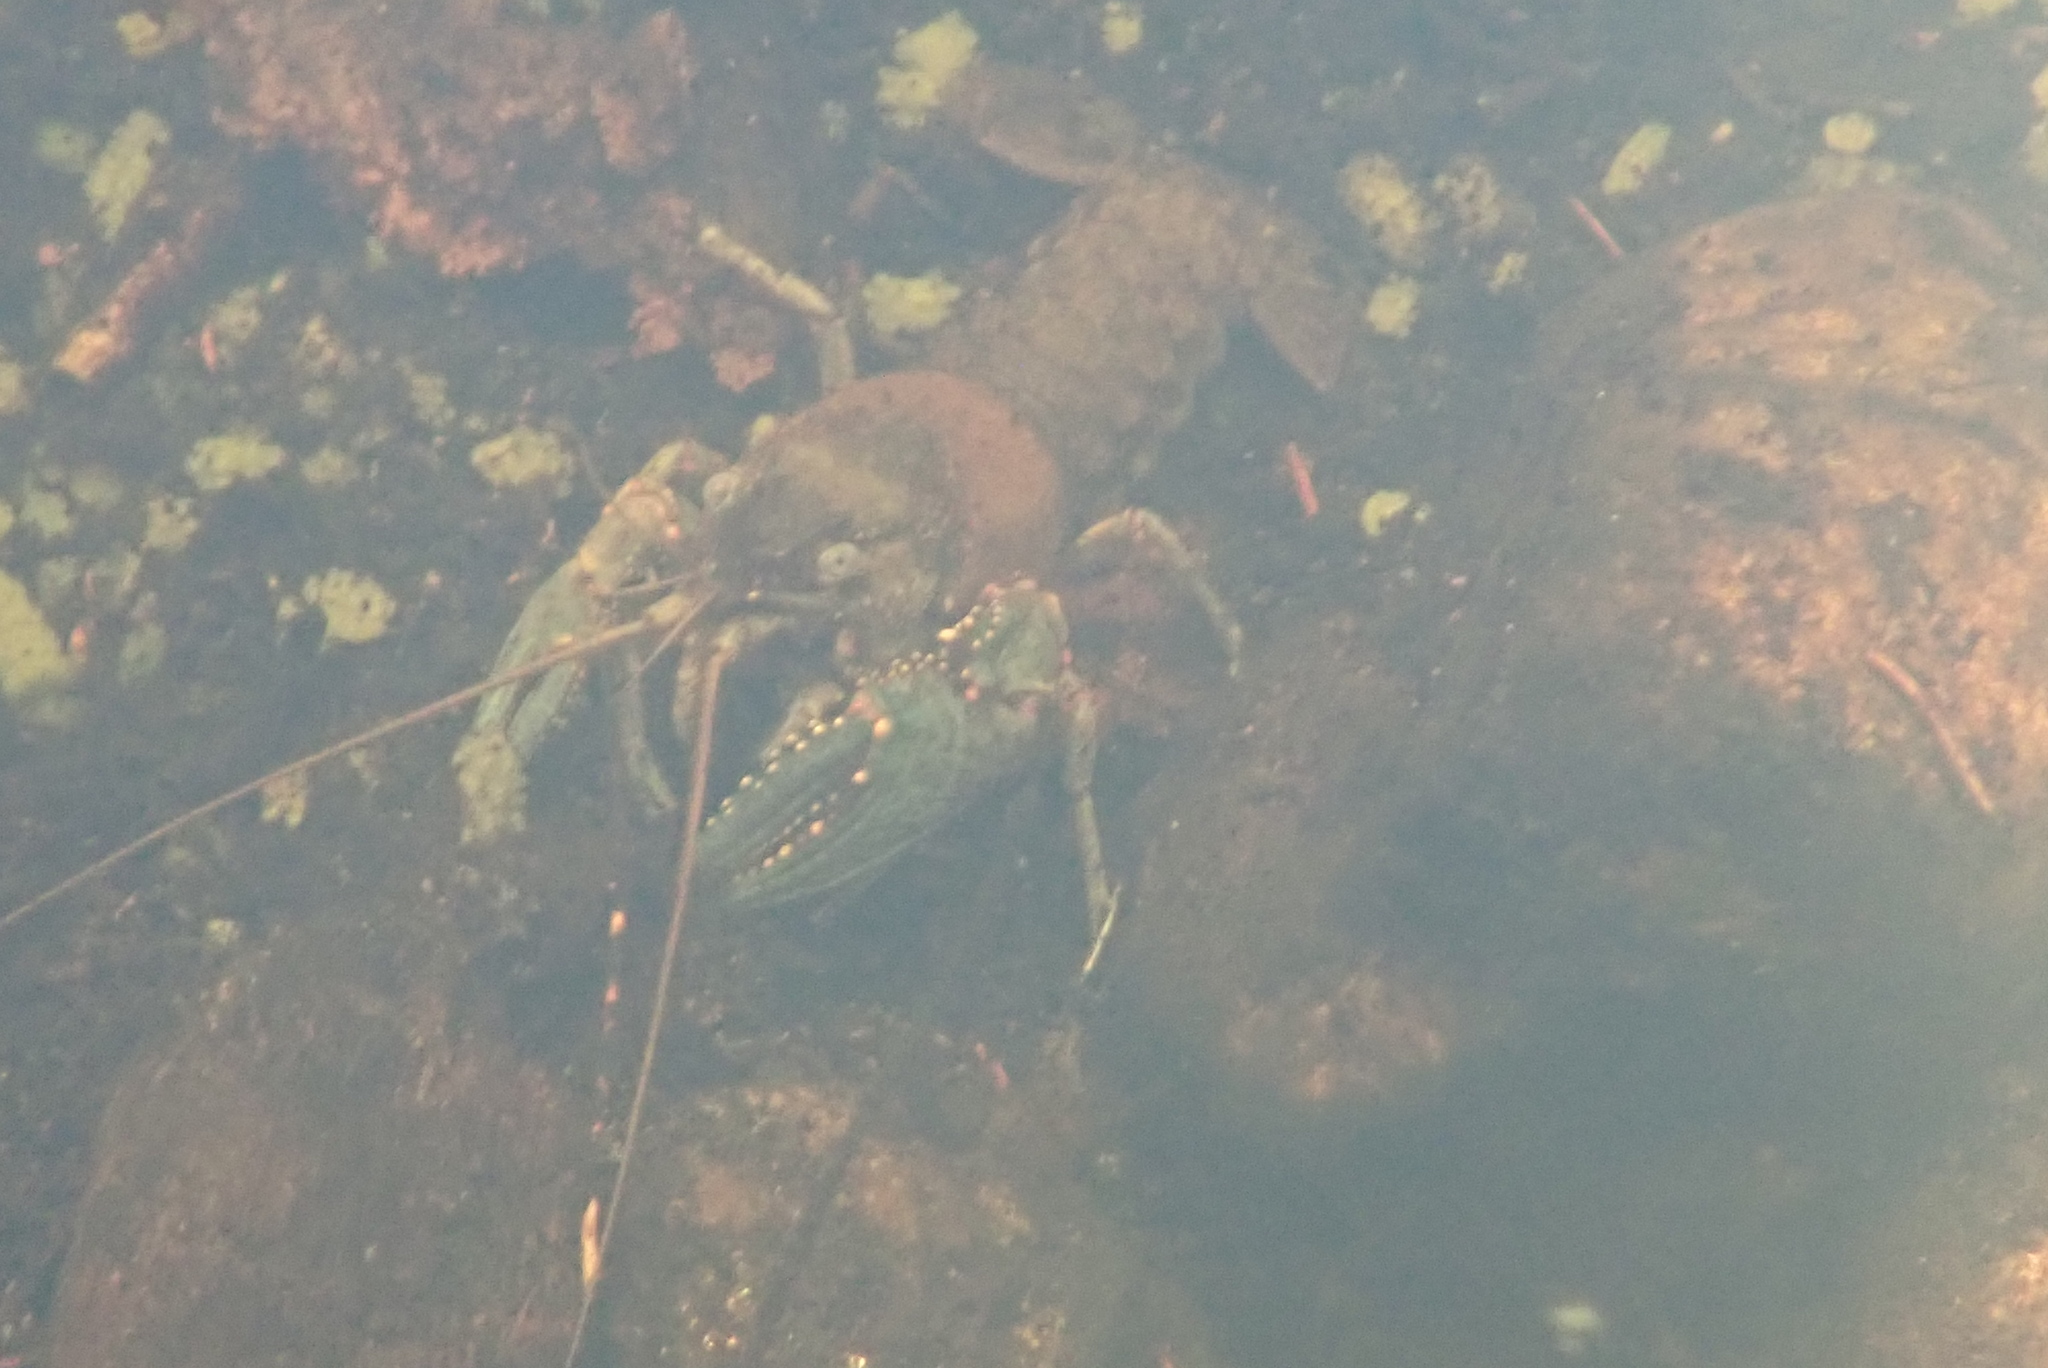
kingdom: Animalia
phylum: Arthropoda
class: Malacostraca
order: Decapoda
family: Cambaridae
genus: Faxonius
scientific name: Faxonius virilis
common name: Virile crayfish
